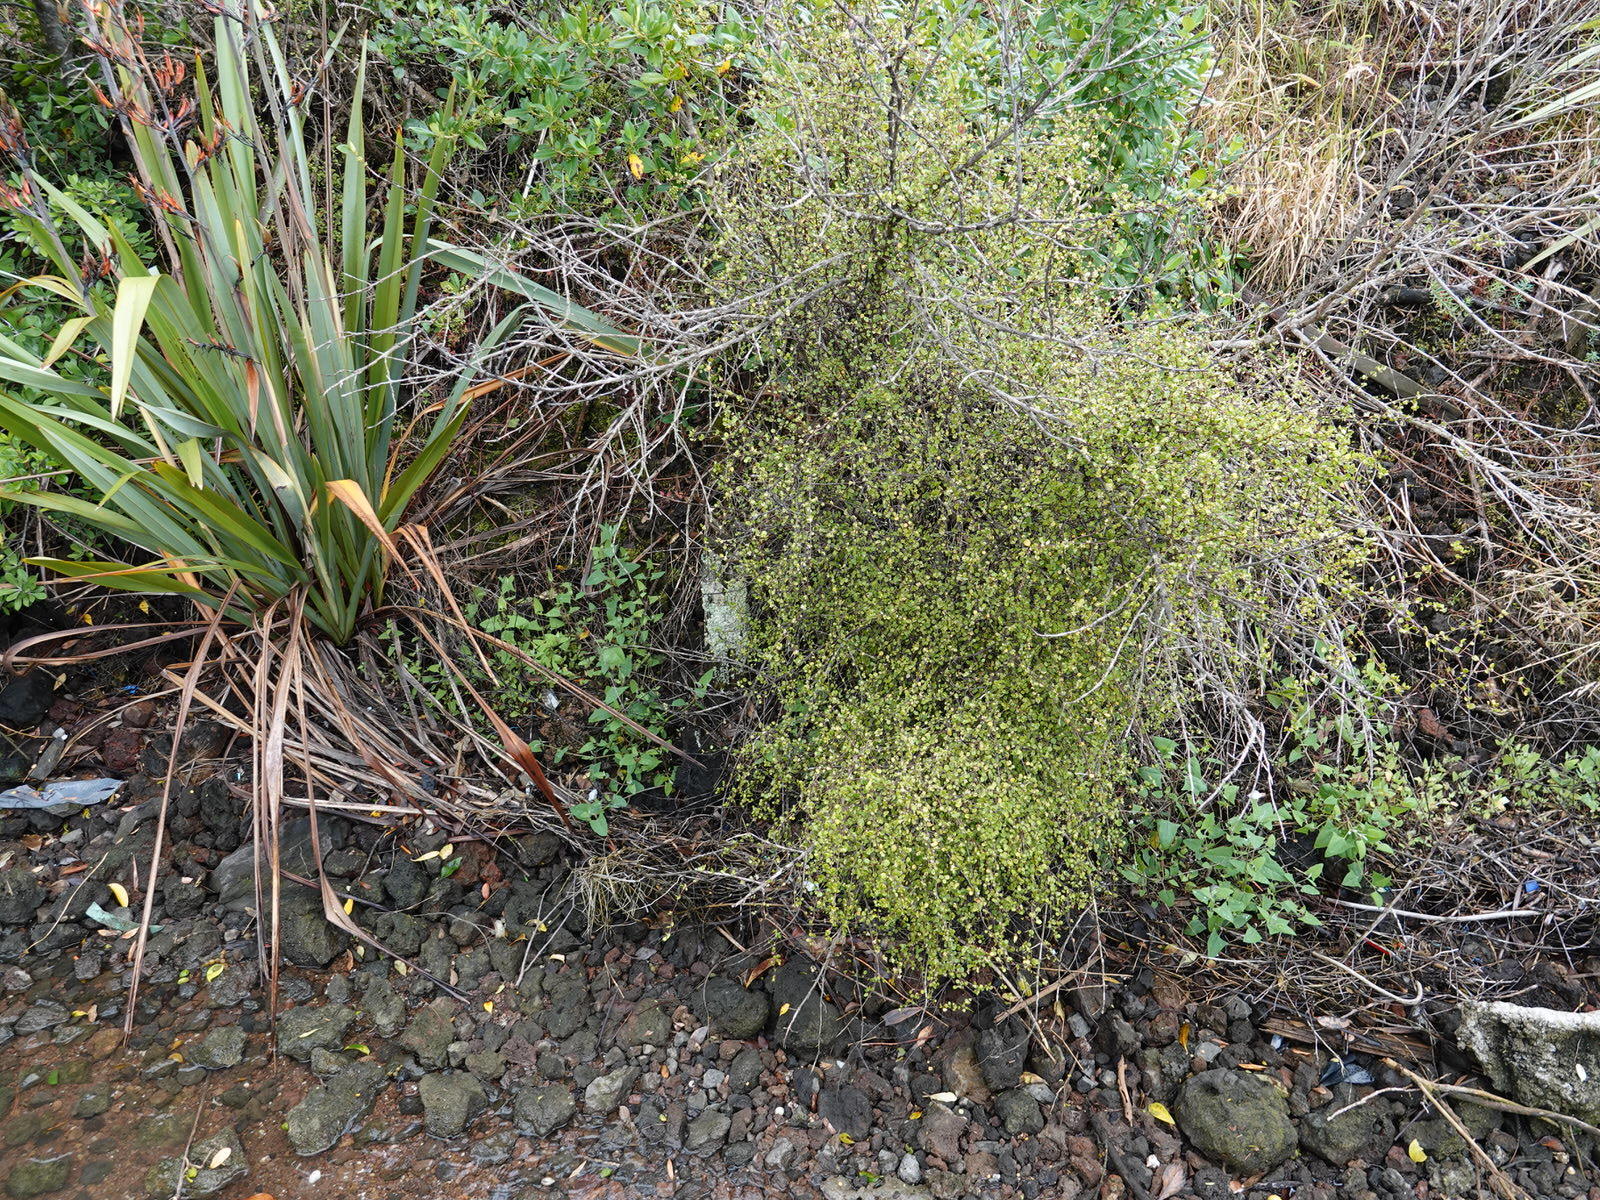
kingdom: Plantae
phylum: Tracheophyta
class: Magnoliopsida
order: Caryophyllales
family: Polygonaceae
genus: Muehlenbeckia
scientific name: Muehlenbeckia complexa
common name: Wireplant
